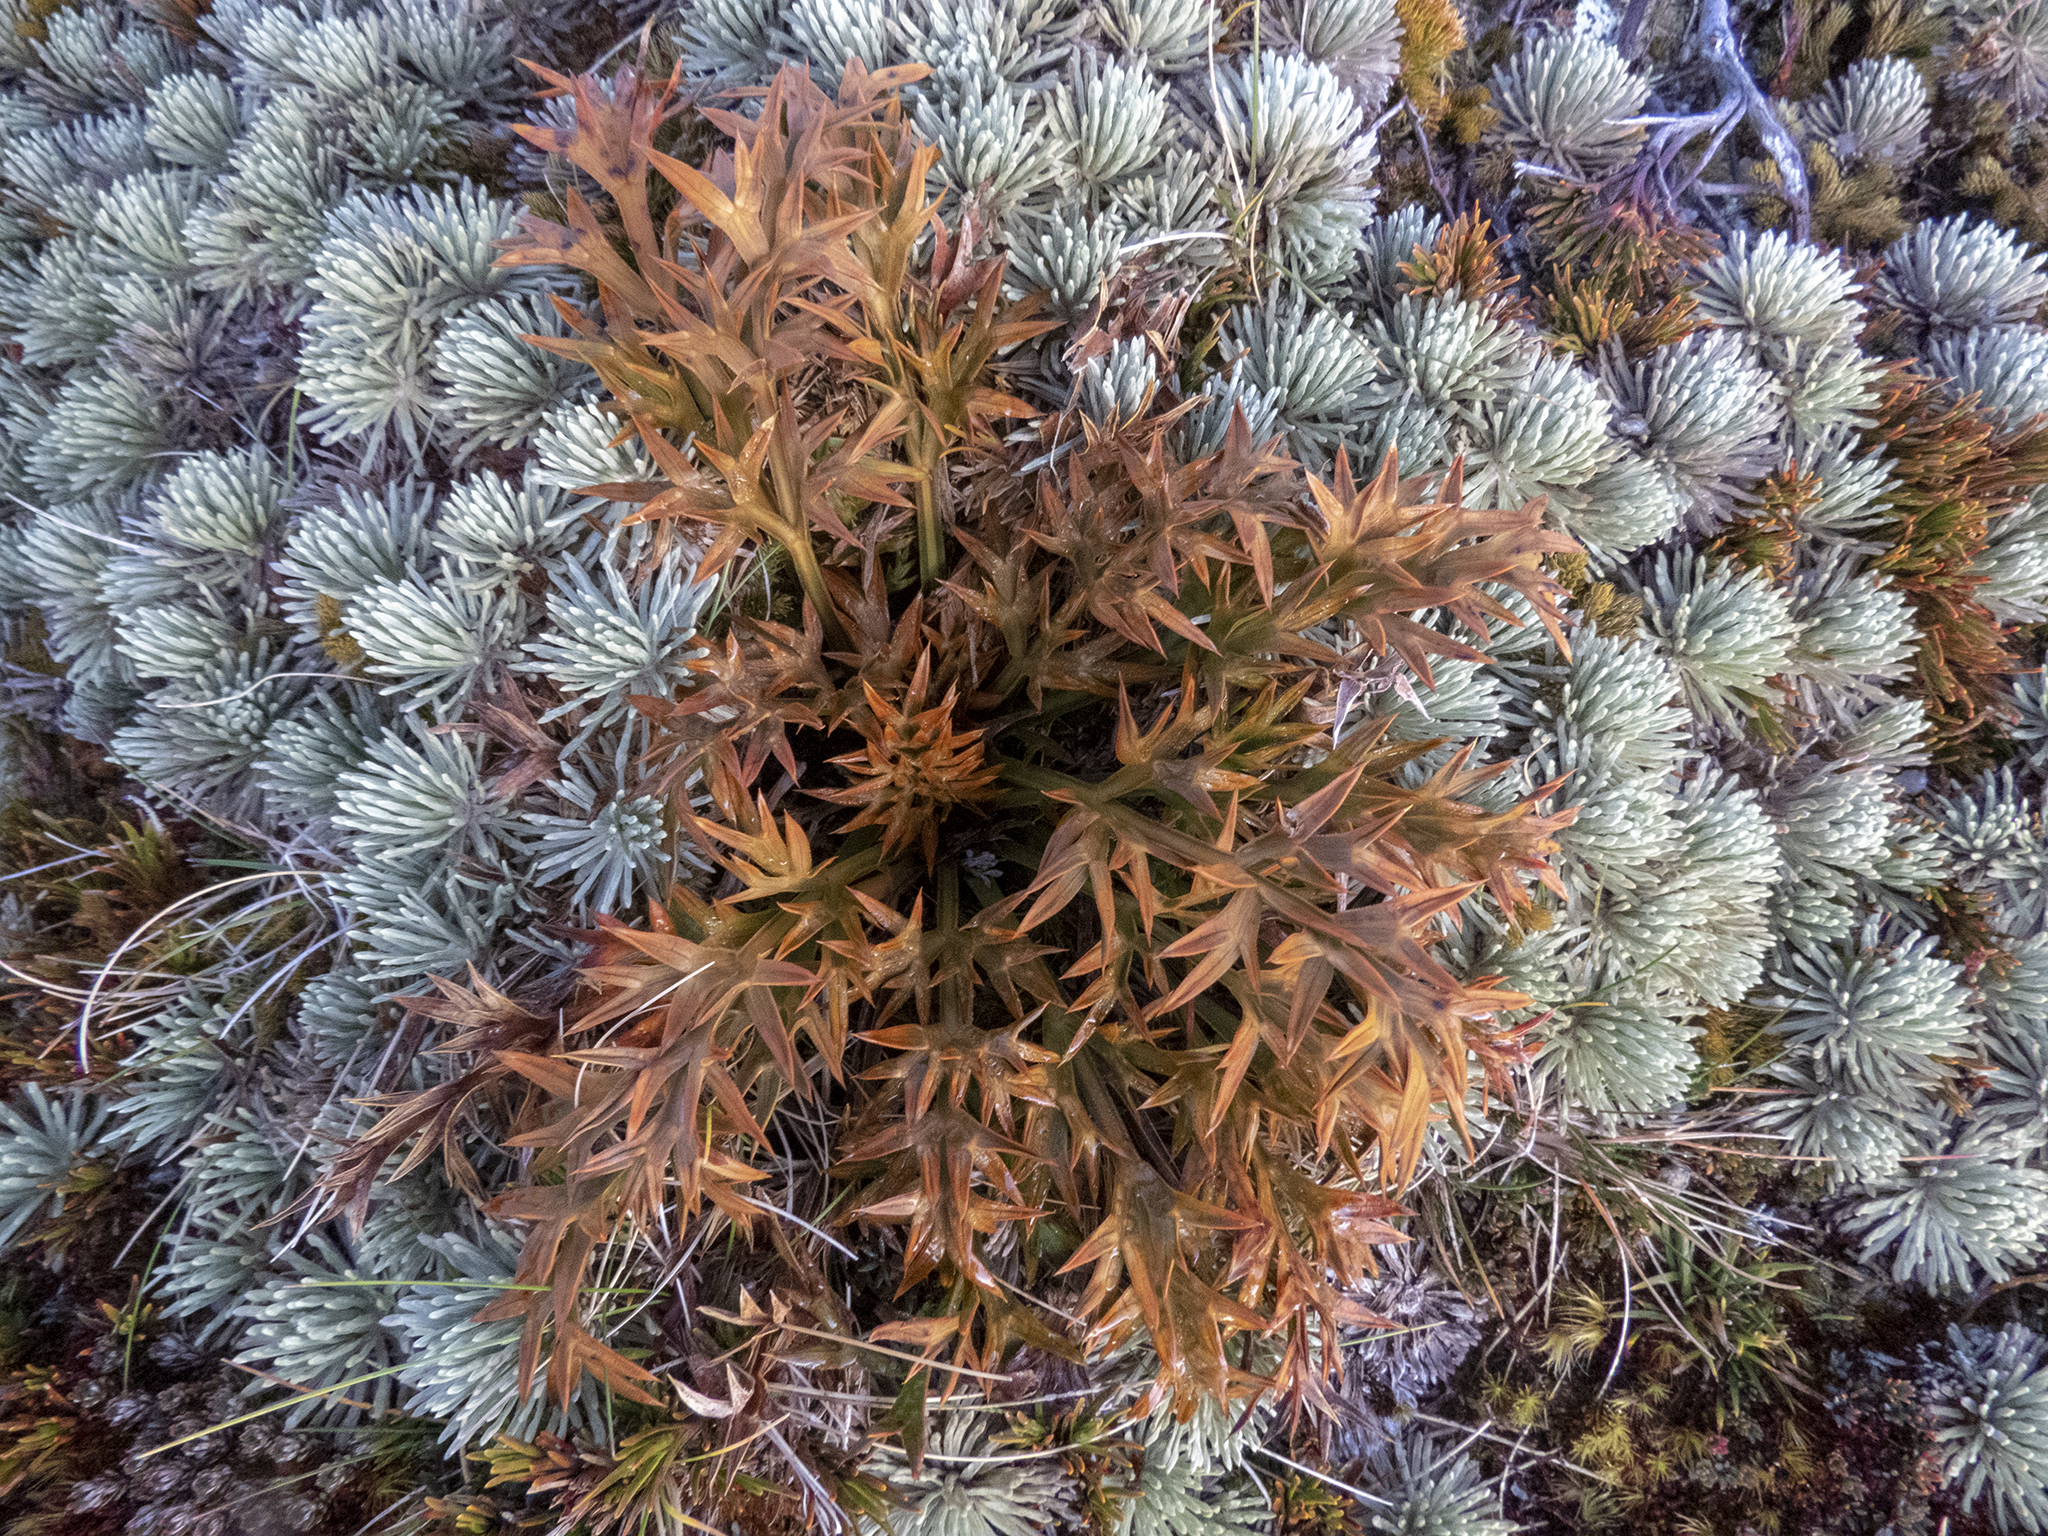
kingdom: Plantae
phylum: Tracheophyta
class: Magnoliopsida
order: Apiales
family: Apiaceae
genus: Aciphylla
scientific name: Aciphylla hookeri
